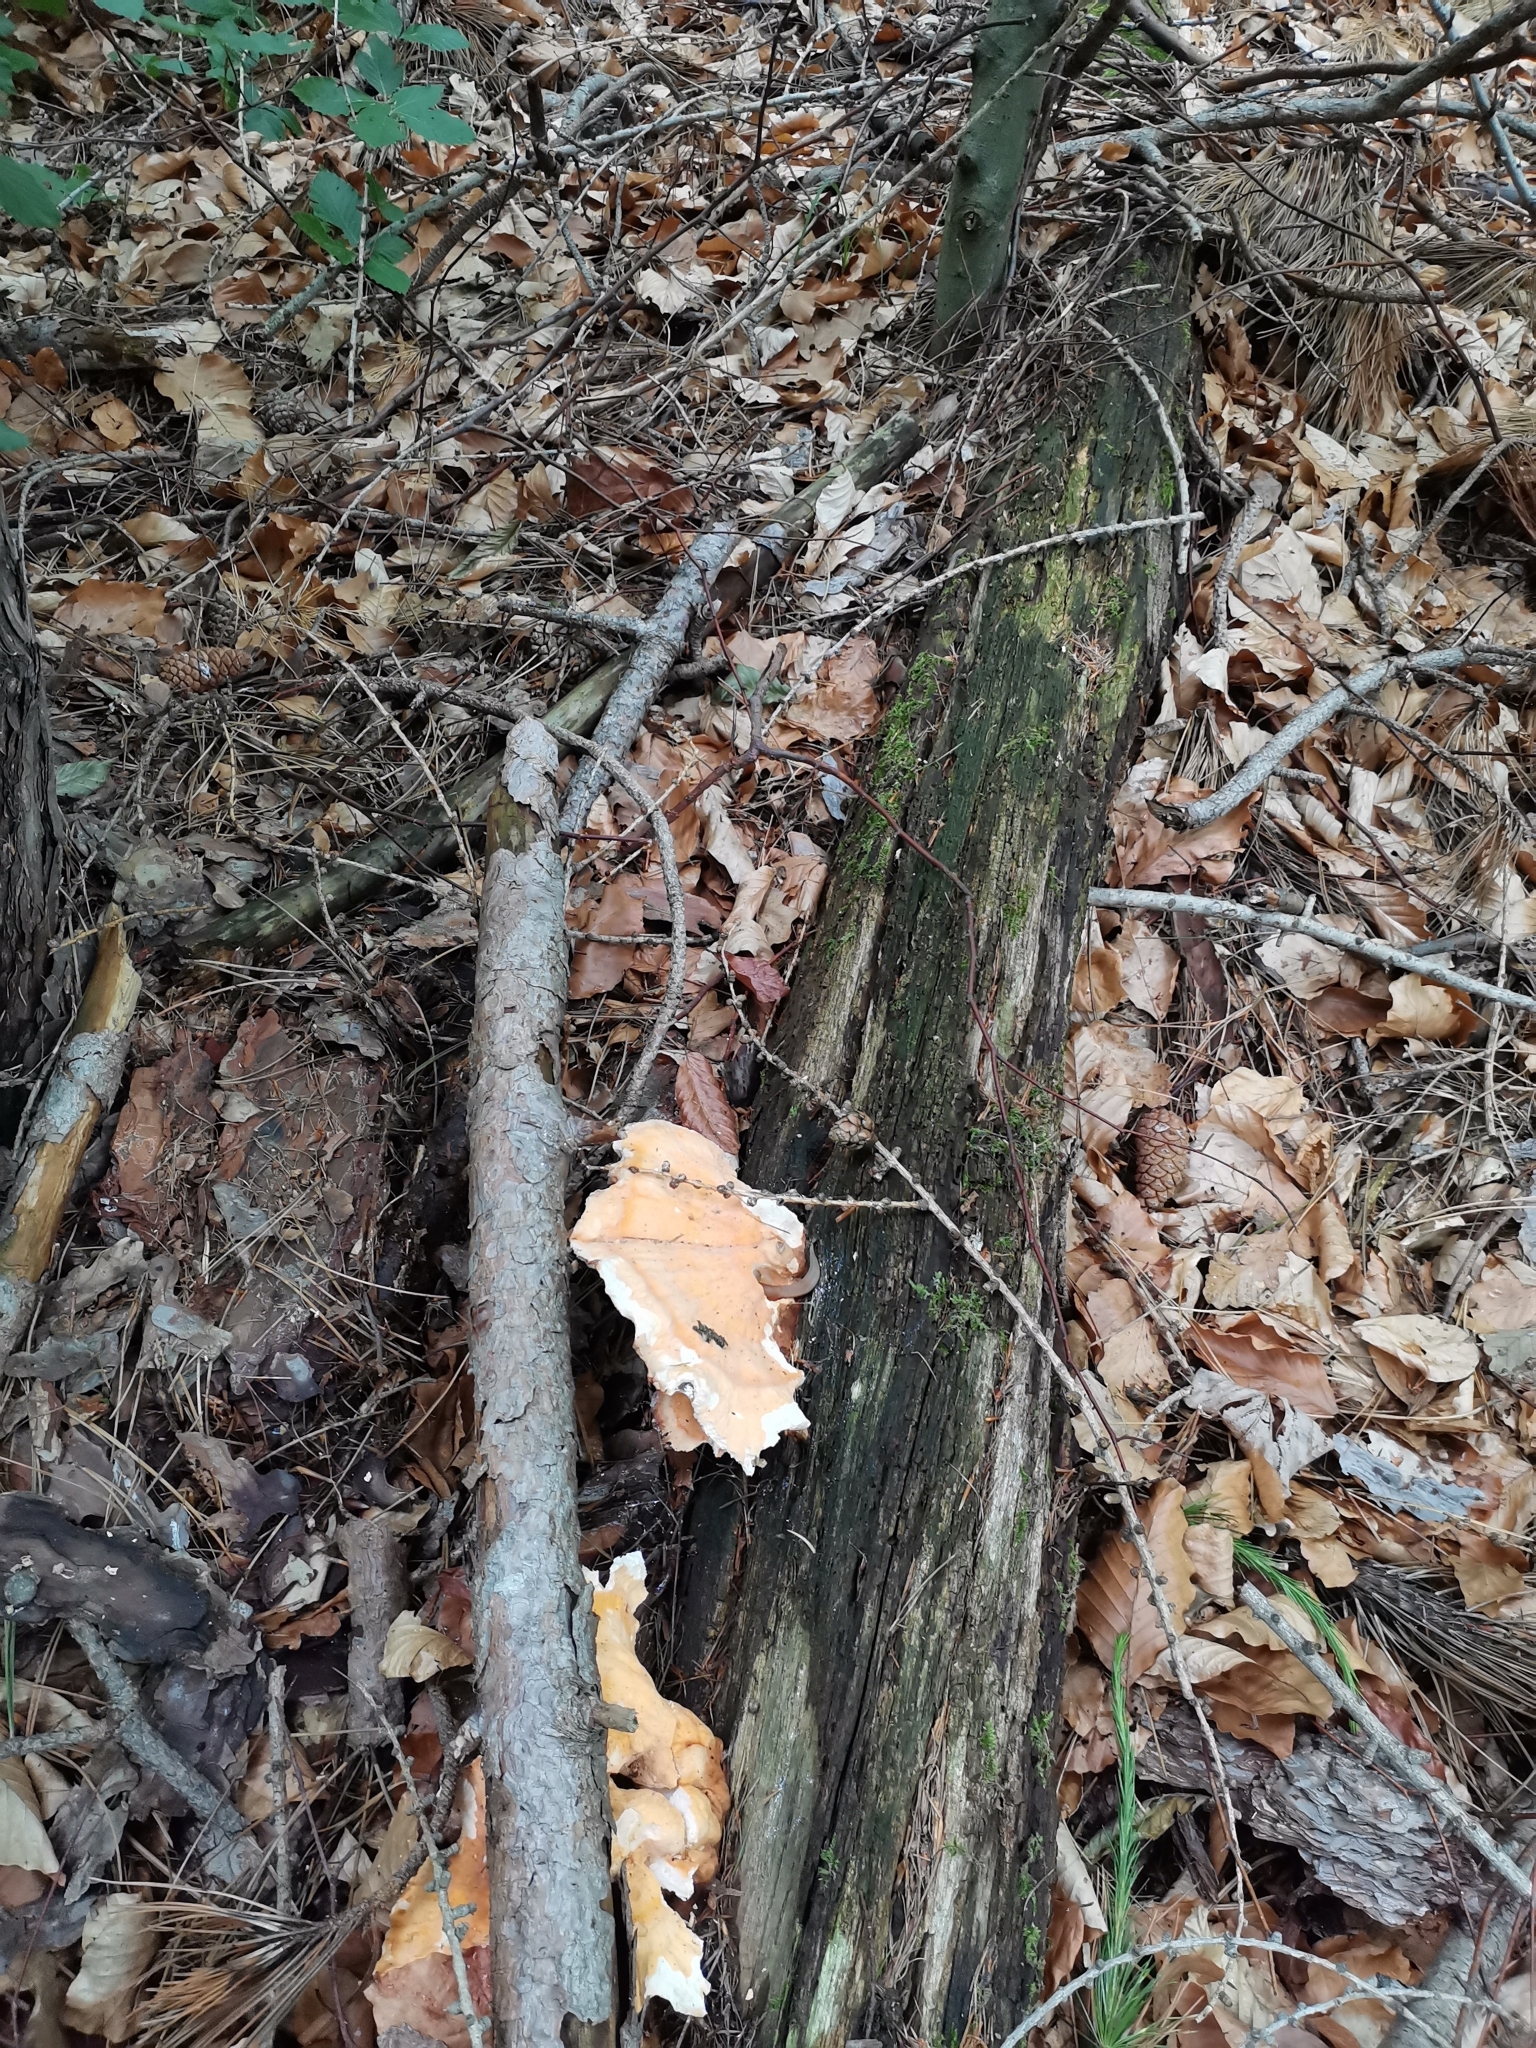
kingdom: Fungi
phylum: Basidiomycota
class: Agaricomycetes
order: Polyporales
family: Laetiporaceae
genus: Laetiporus
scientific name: Laetiporus sulphureus
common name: Chicken of the woods
